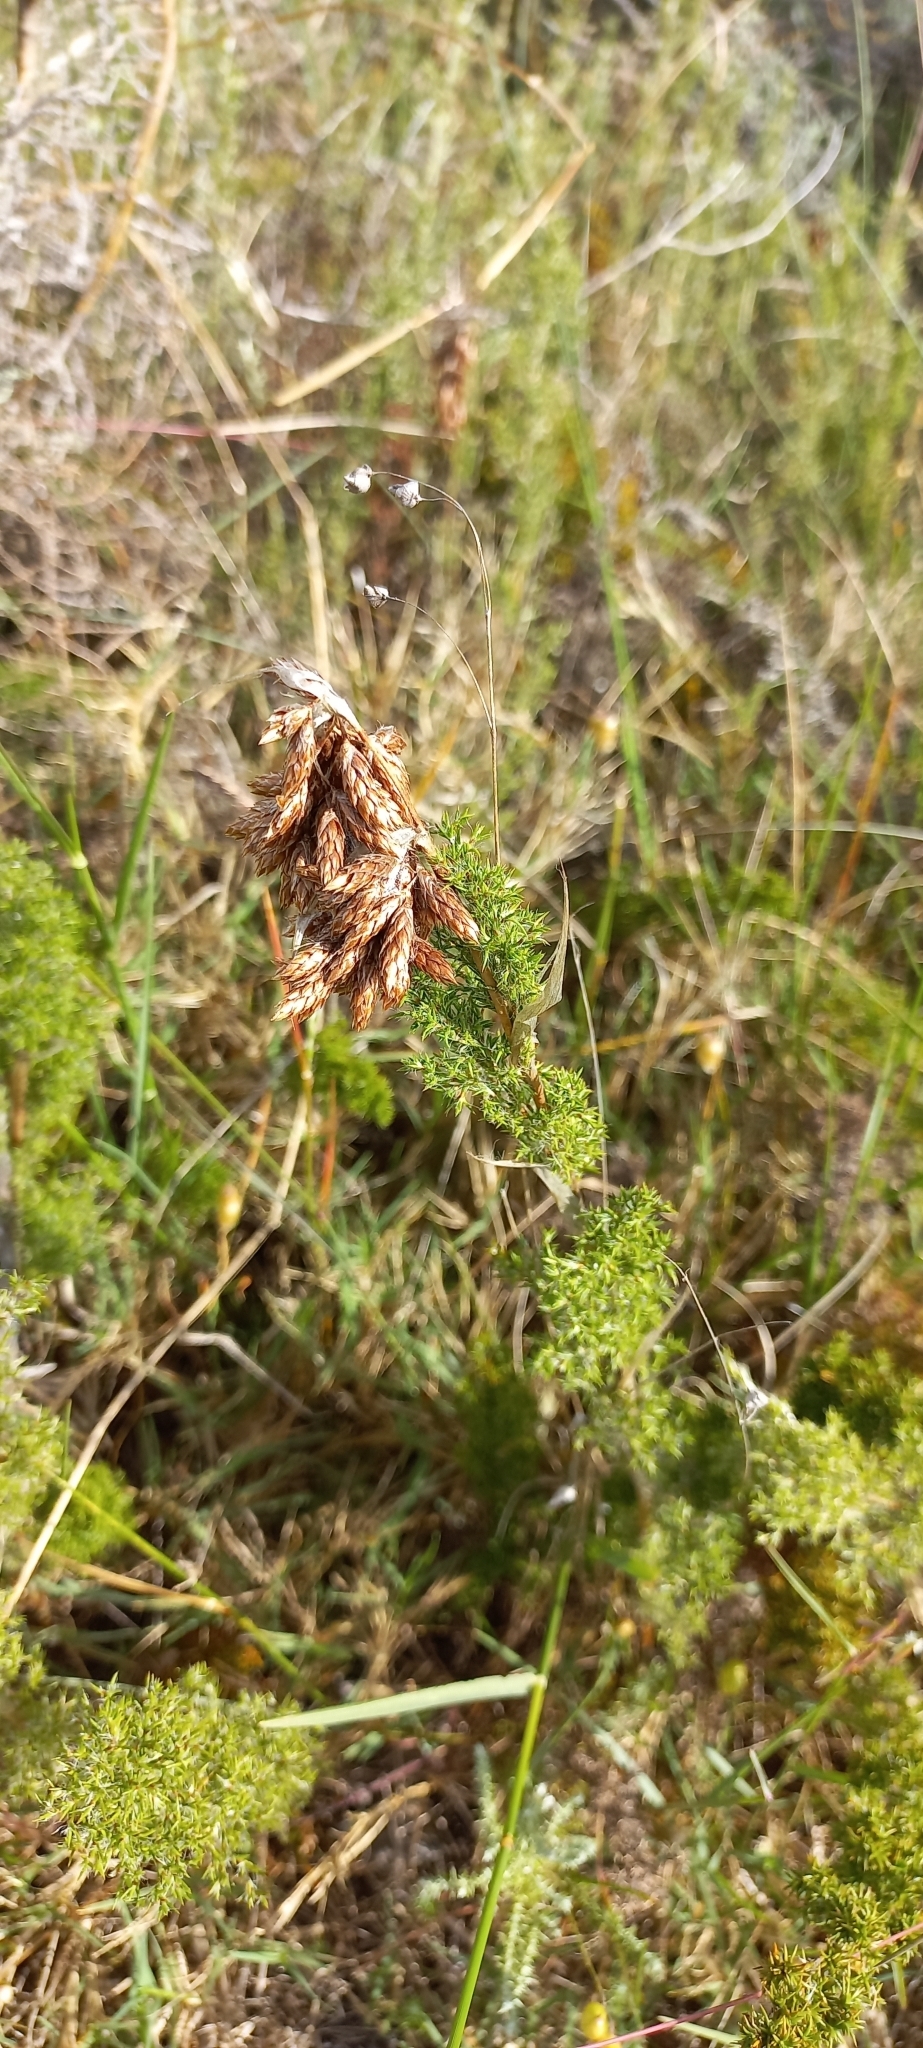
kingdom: Plantae
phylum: Tracheophyta
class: Liliopsida
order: Poales
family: Restionaceae
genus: Thamnochortus
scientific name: Thamnochortus fruticosus
